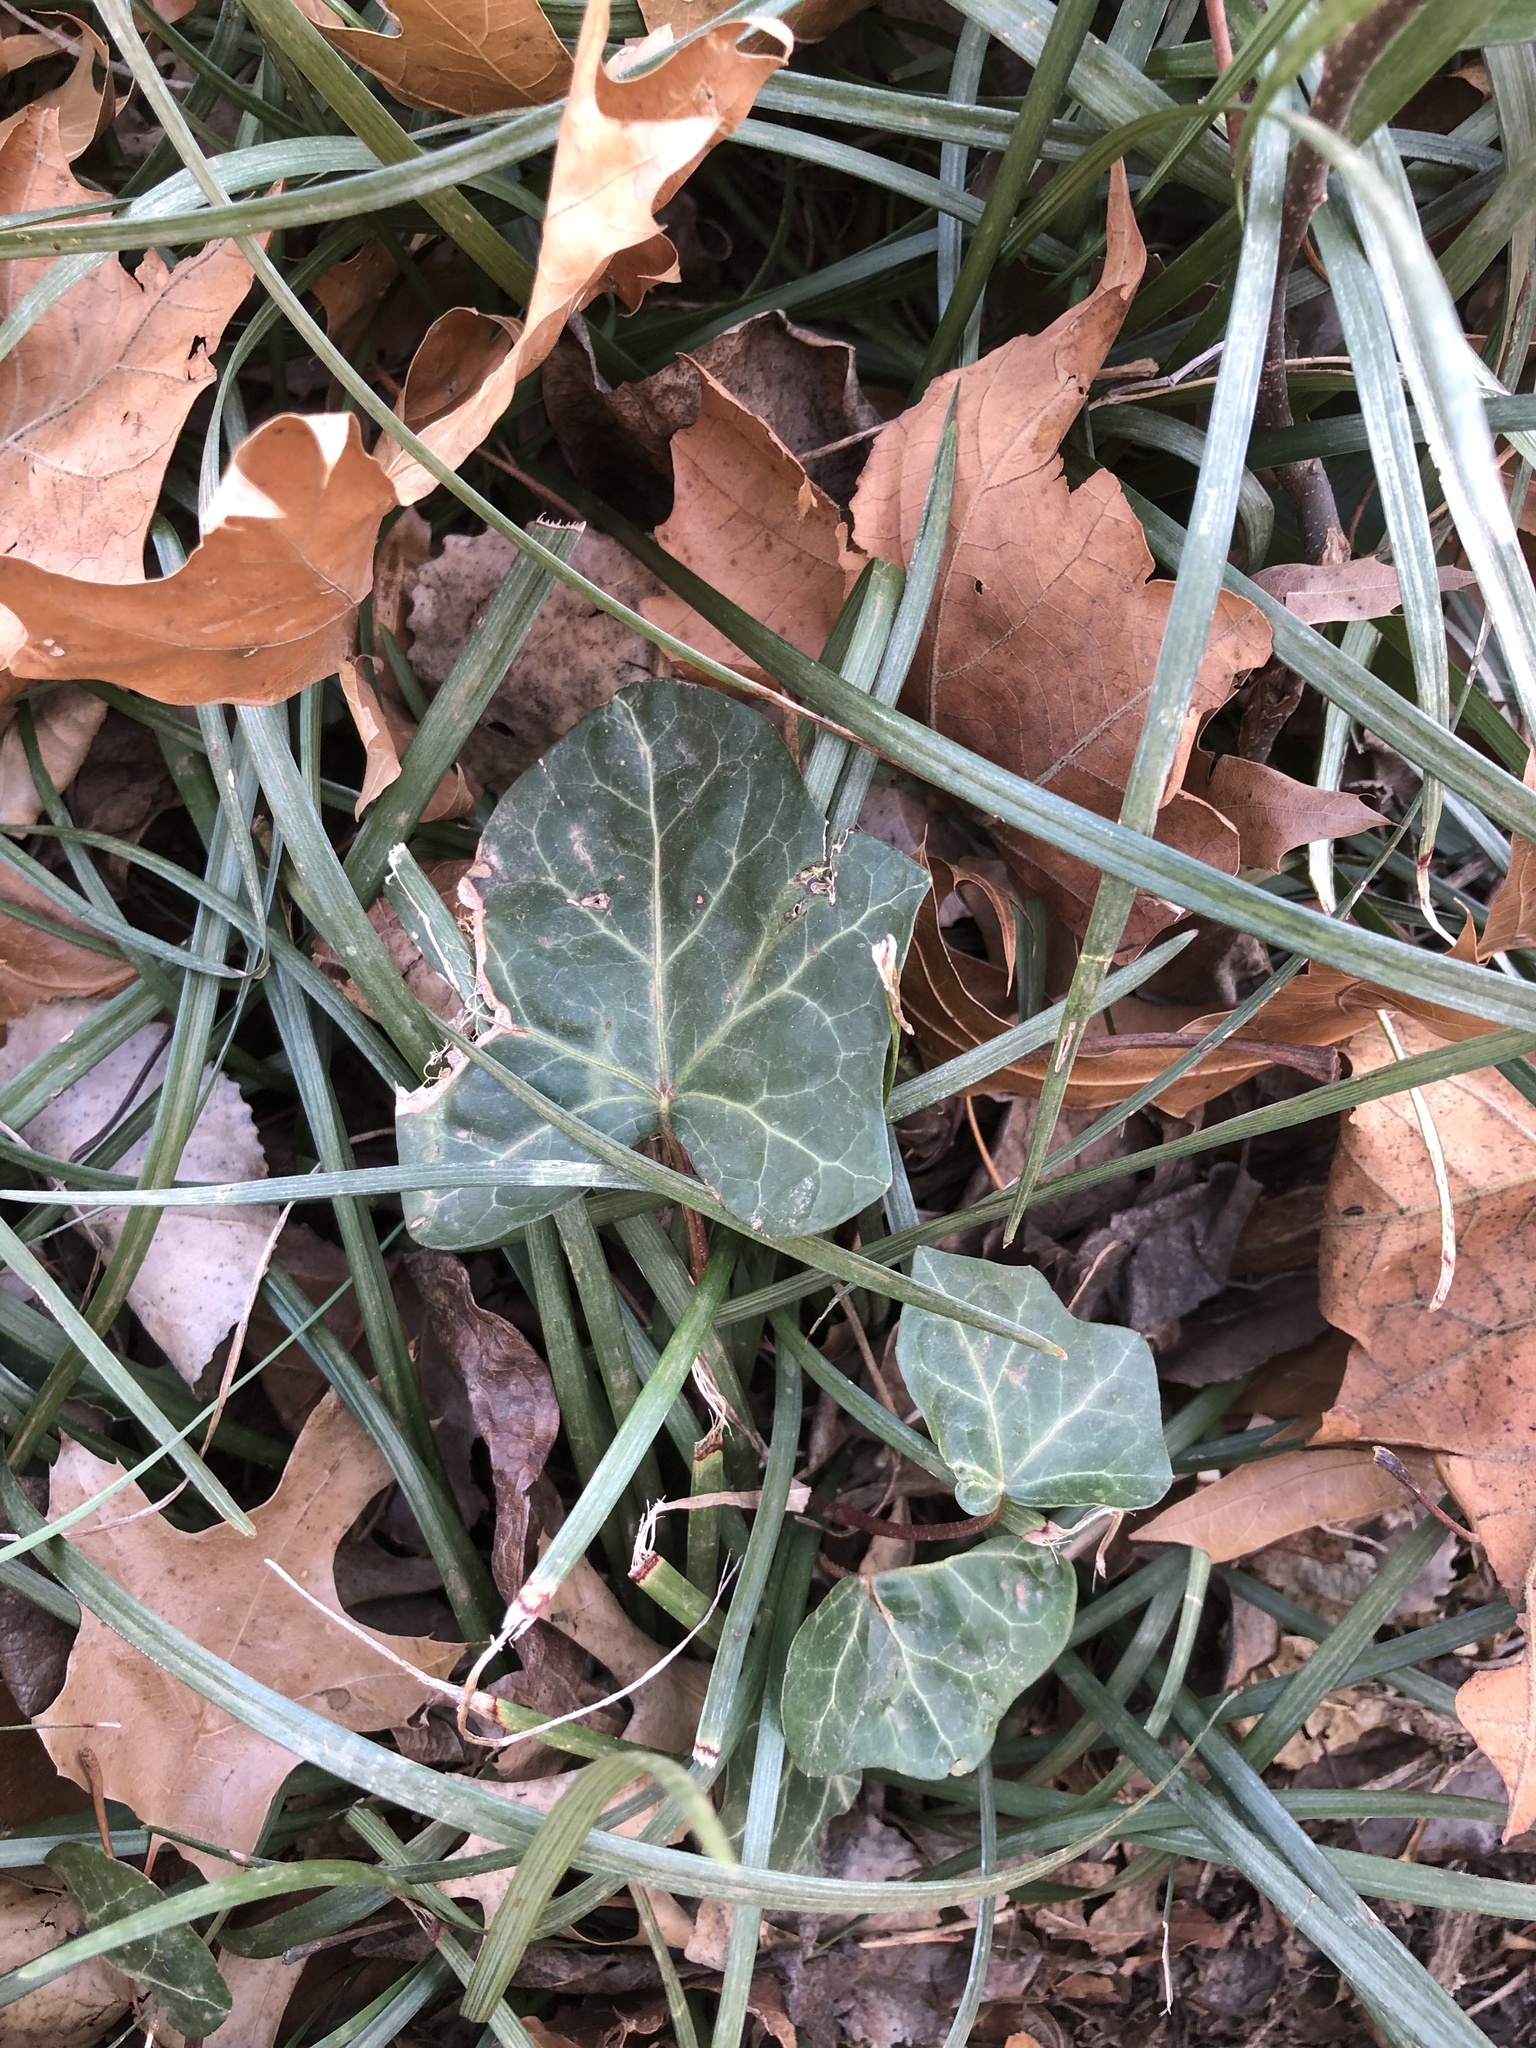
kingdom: Plantae
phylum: Tracheophyta
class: Magnoliopsida
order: Apiales
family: Araliaceae
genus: Hedera
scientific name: Hedera helix
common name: Ivy
